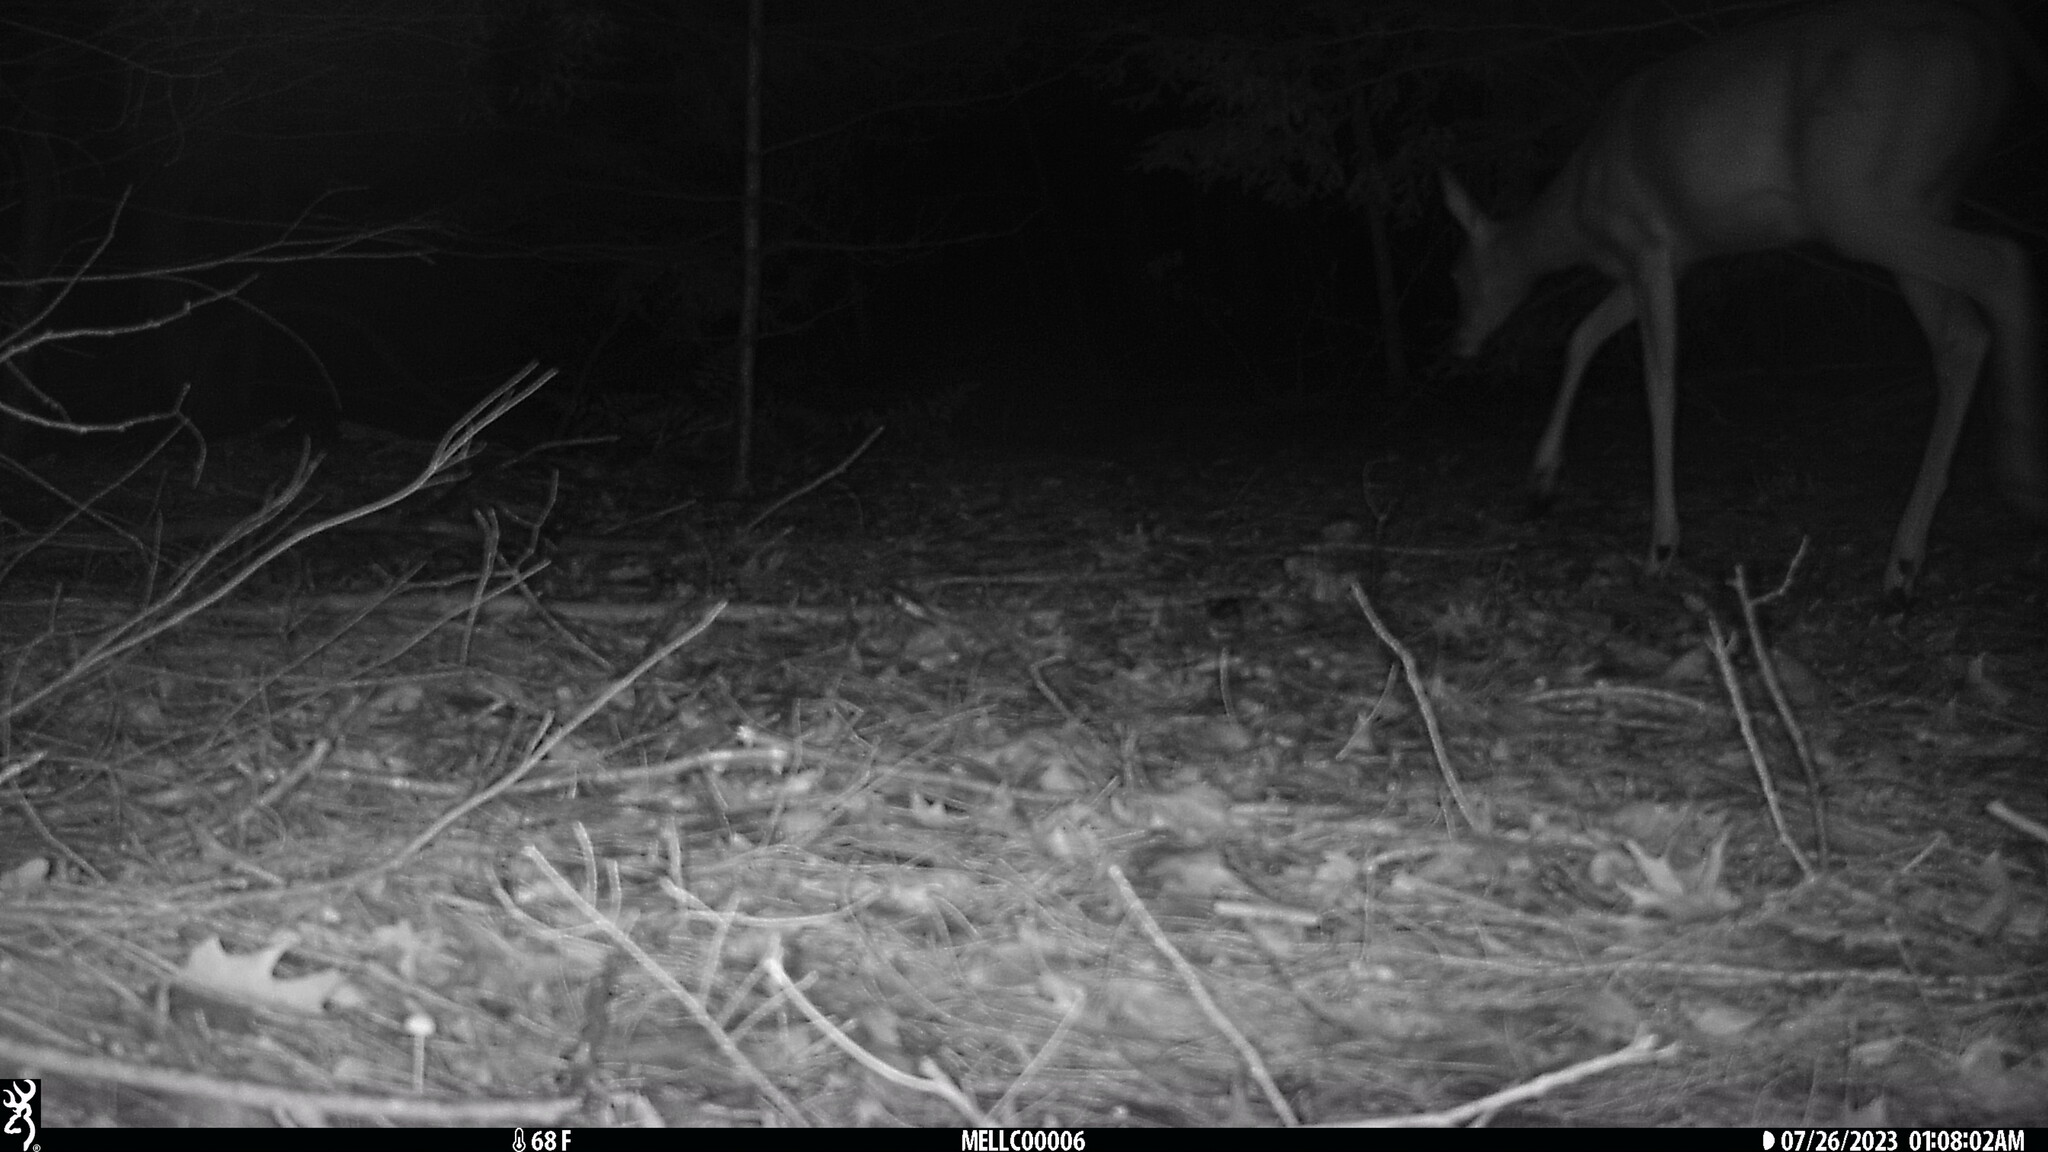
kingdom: Animalia
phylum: Chordata
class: Mammalia
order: Artiodactyla
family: Cervidae
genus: Odocoileus
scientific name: Odocoileus virginianus
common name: White-tailed deer
